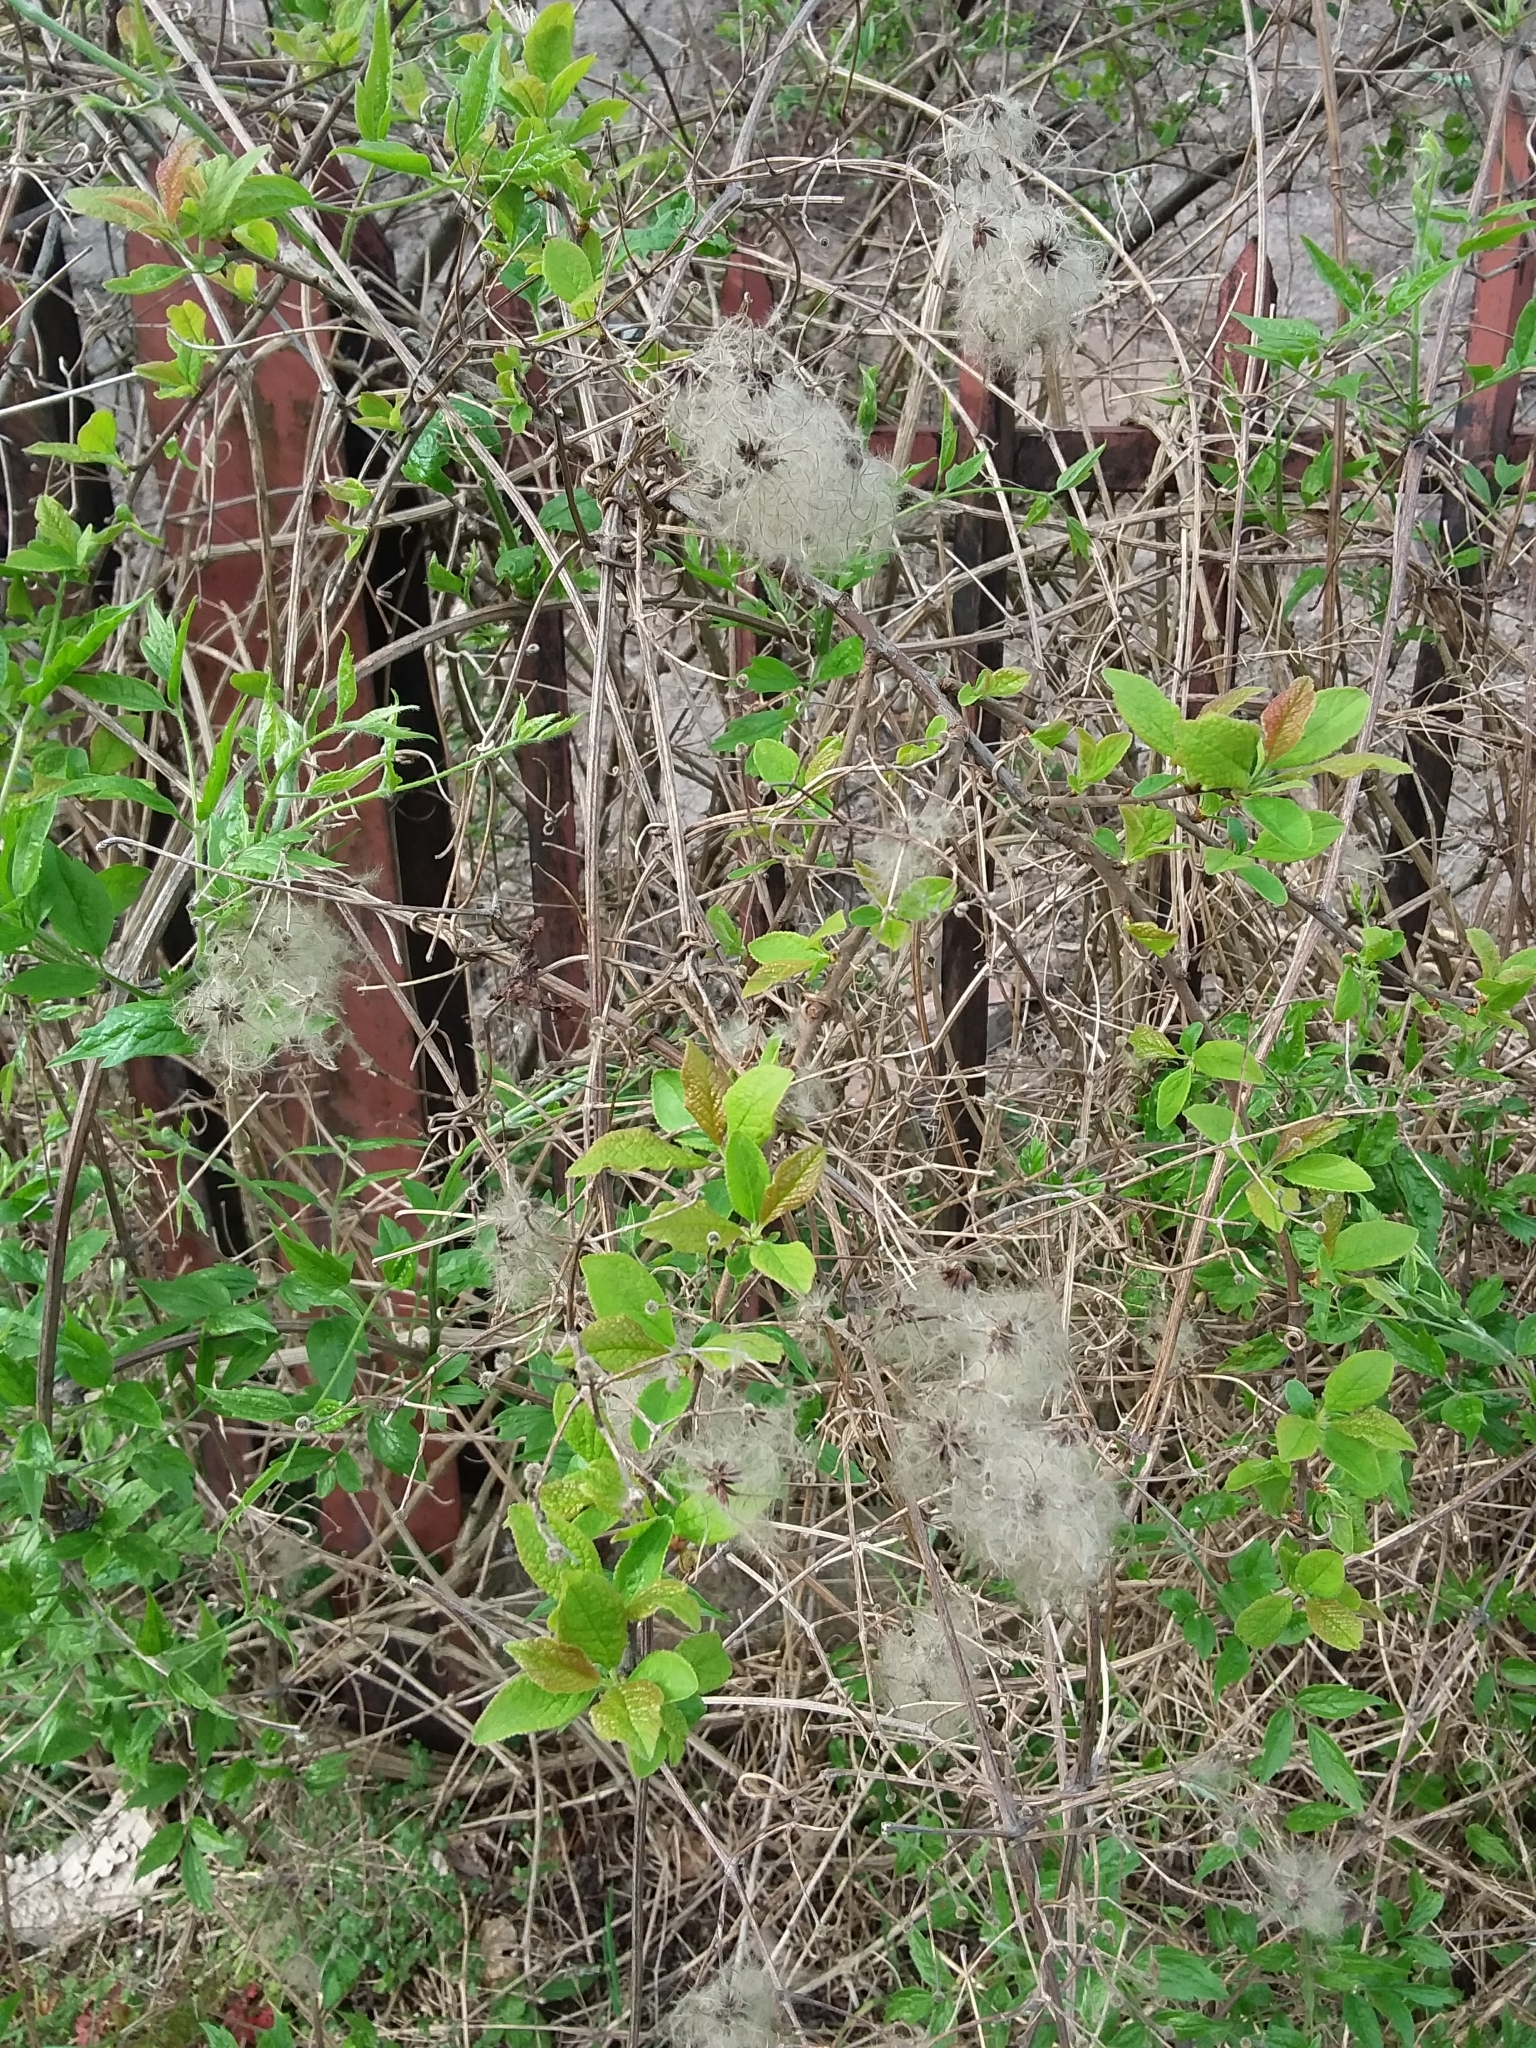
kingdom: Plantae
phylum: Tracheophyta
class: Magnoliopsida
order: Ranunculales
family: Ranunculaceae
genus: Clematis
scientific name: Clematis vitalba
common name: Evergreen clematis
